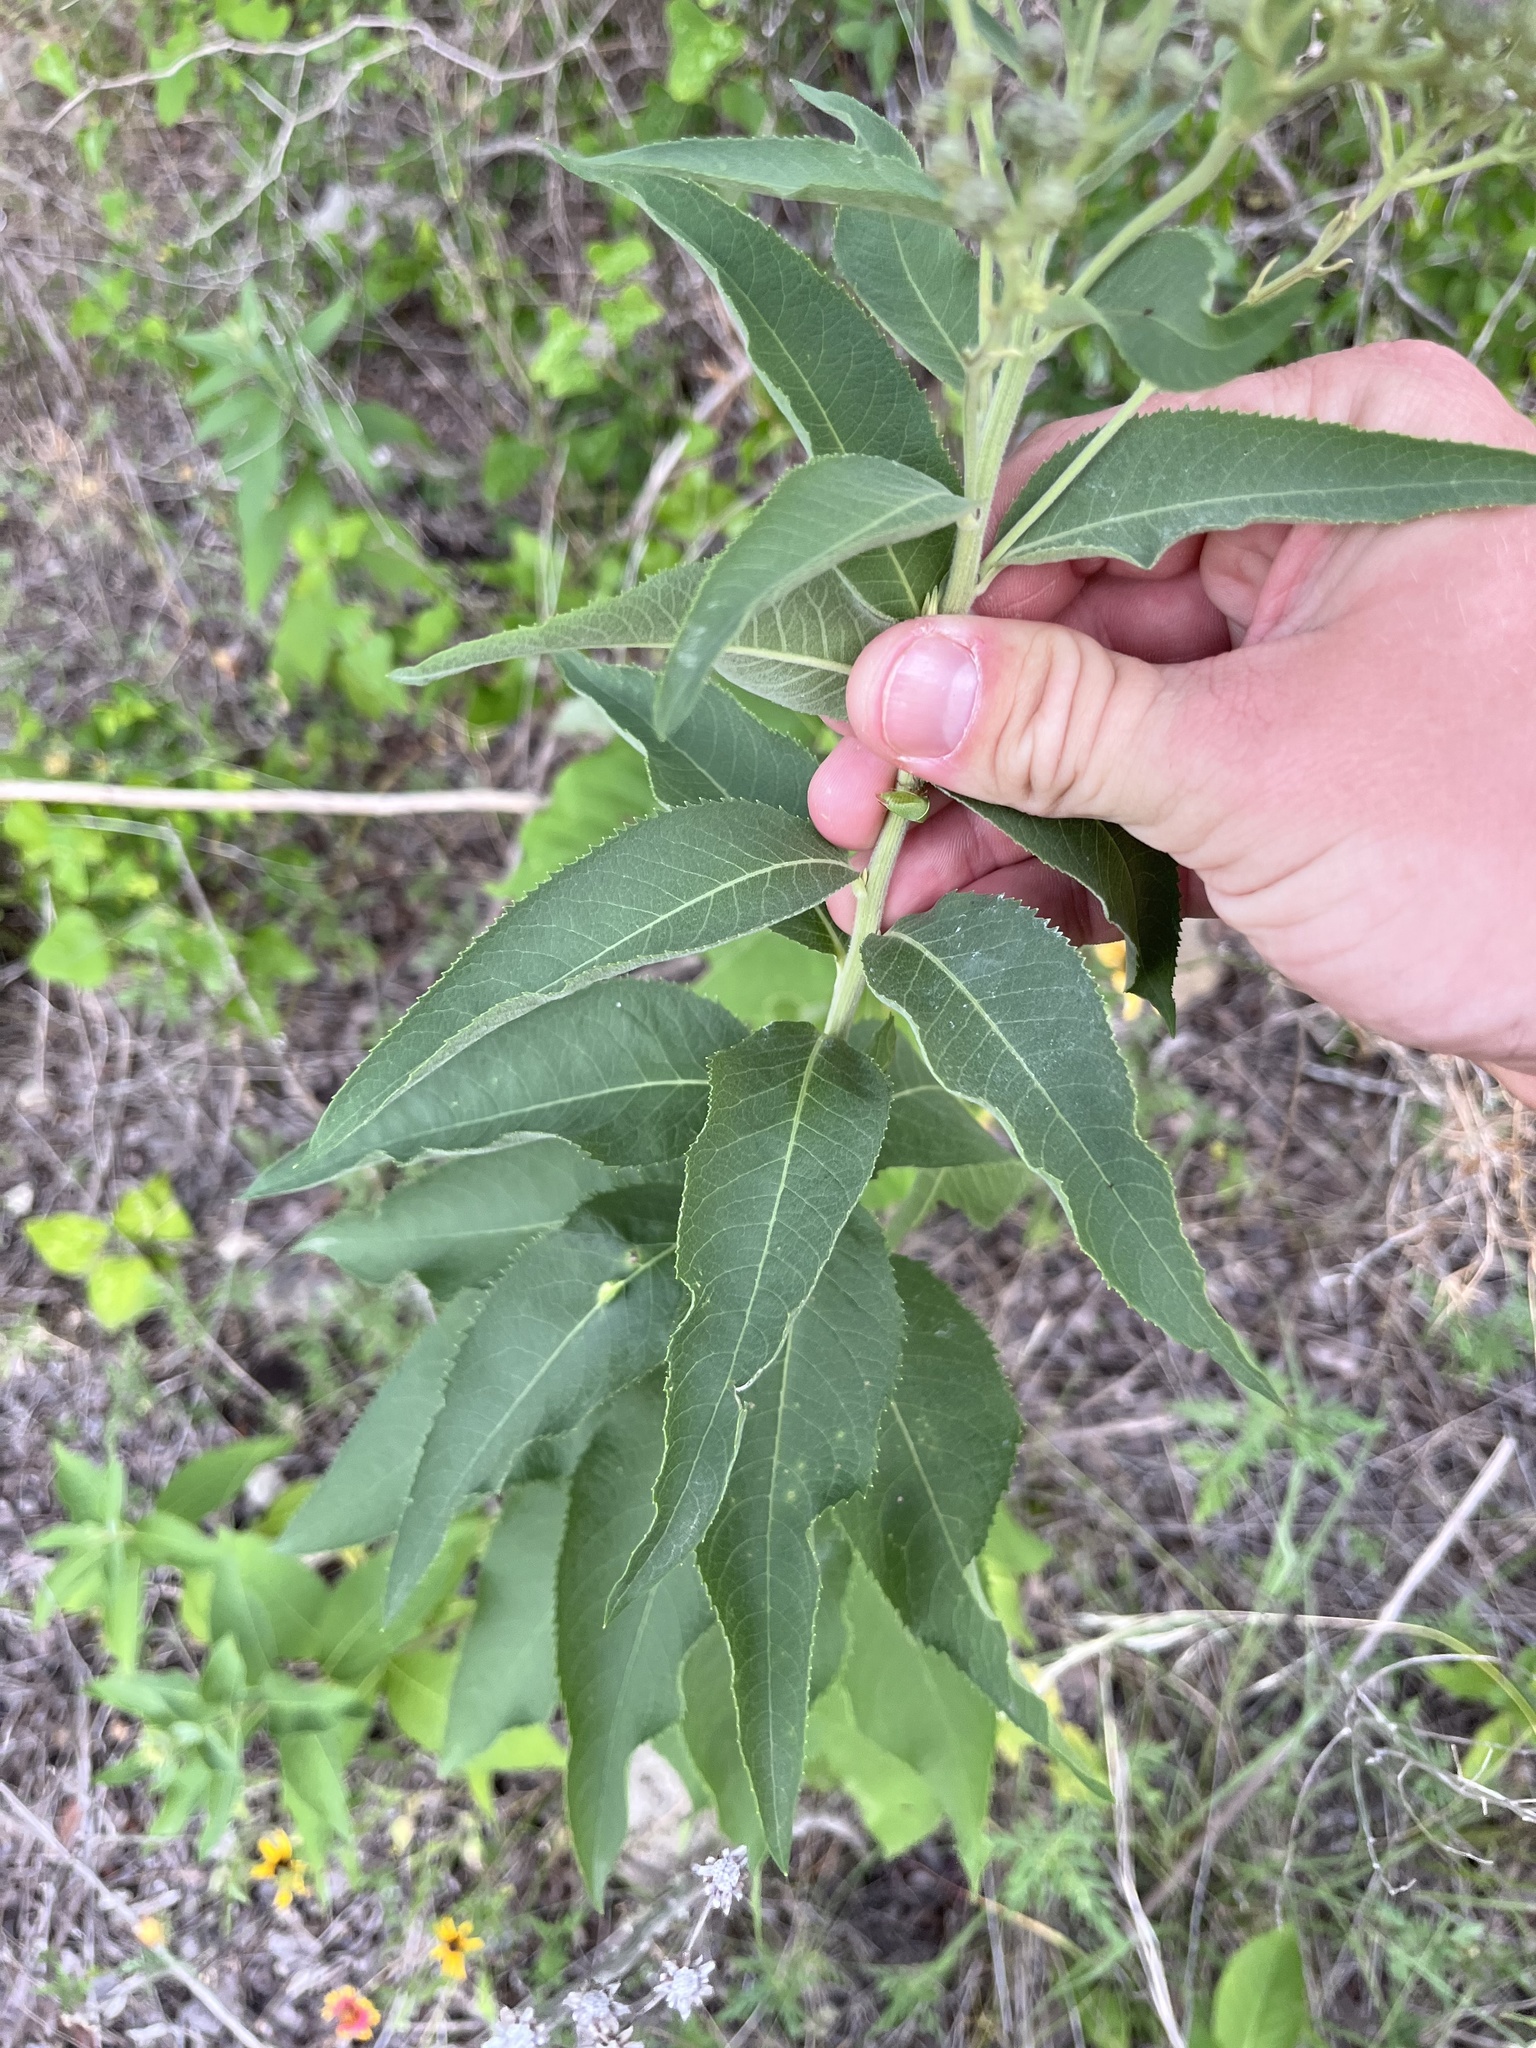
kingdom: Plantae
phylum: Tracheophyta
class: Magnoliopsida
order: Asterales
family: Asteraceae
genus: Vernonia
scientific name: Vernonia baldwinii
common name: Western ironweed
